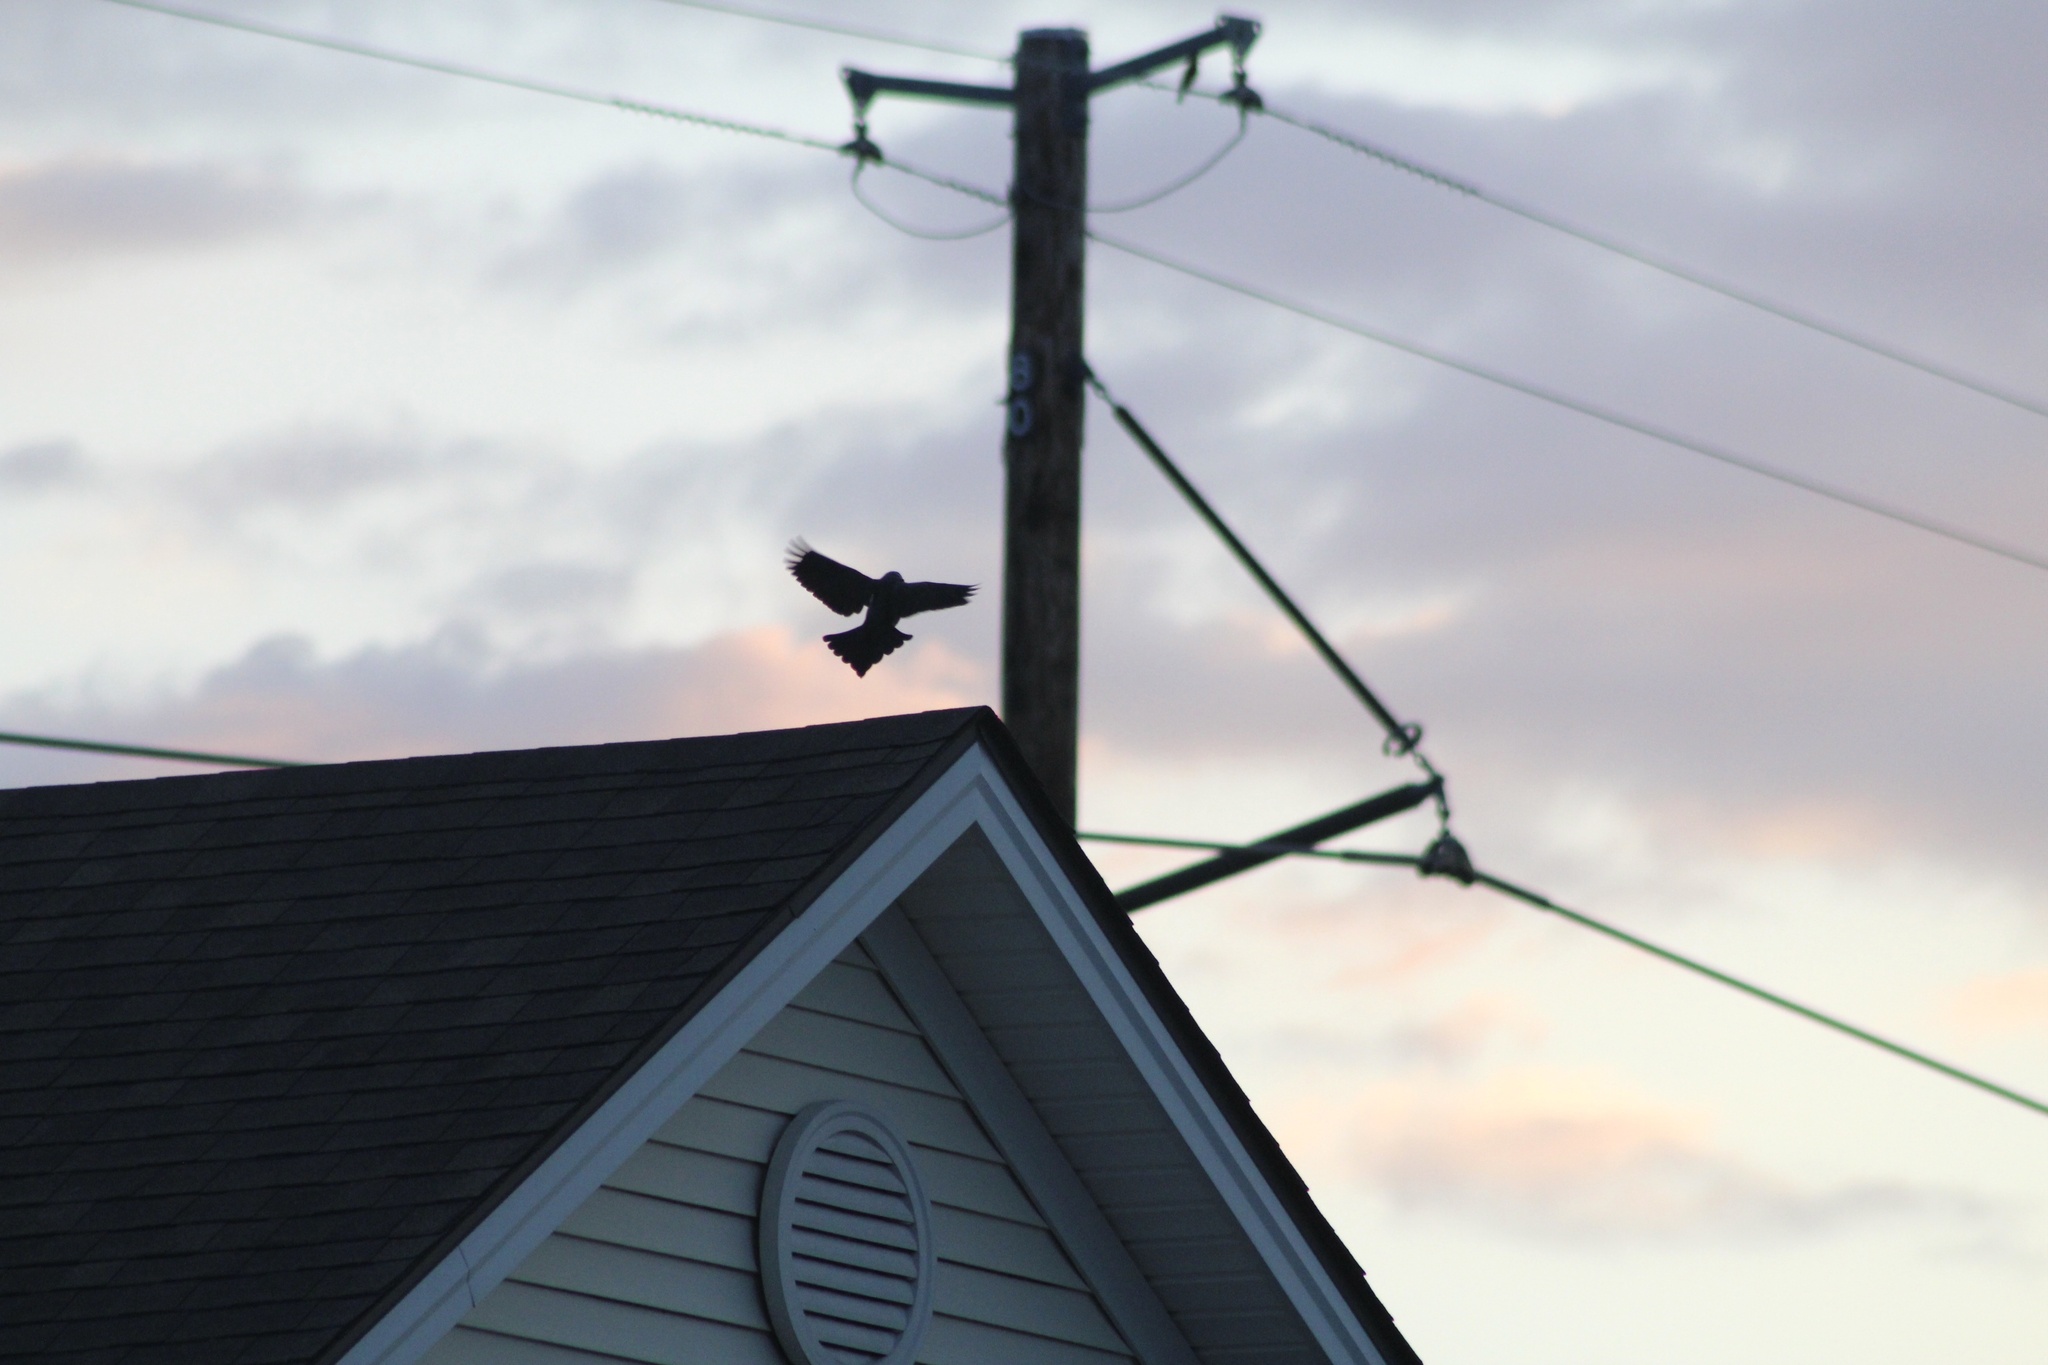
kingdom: Animalia
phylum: Chordata
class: Aves
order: Passeriformes
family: Icteridae
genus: Quiscalus
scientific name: Quiscalus quiscula
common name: Common grackle
